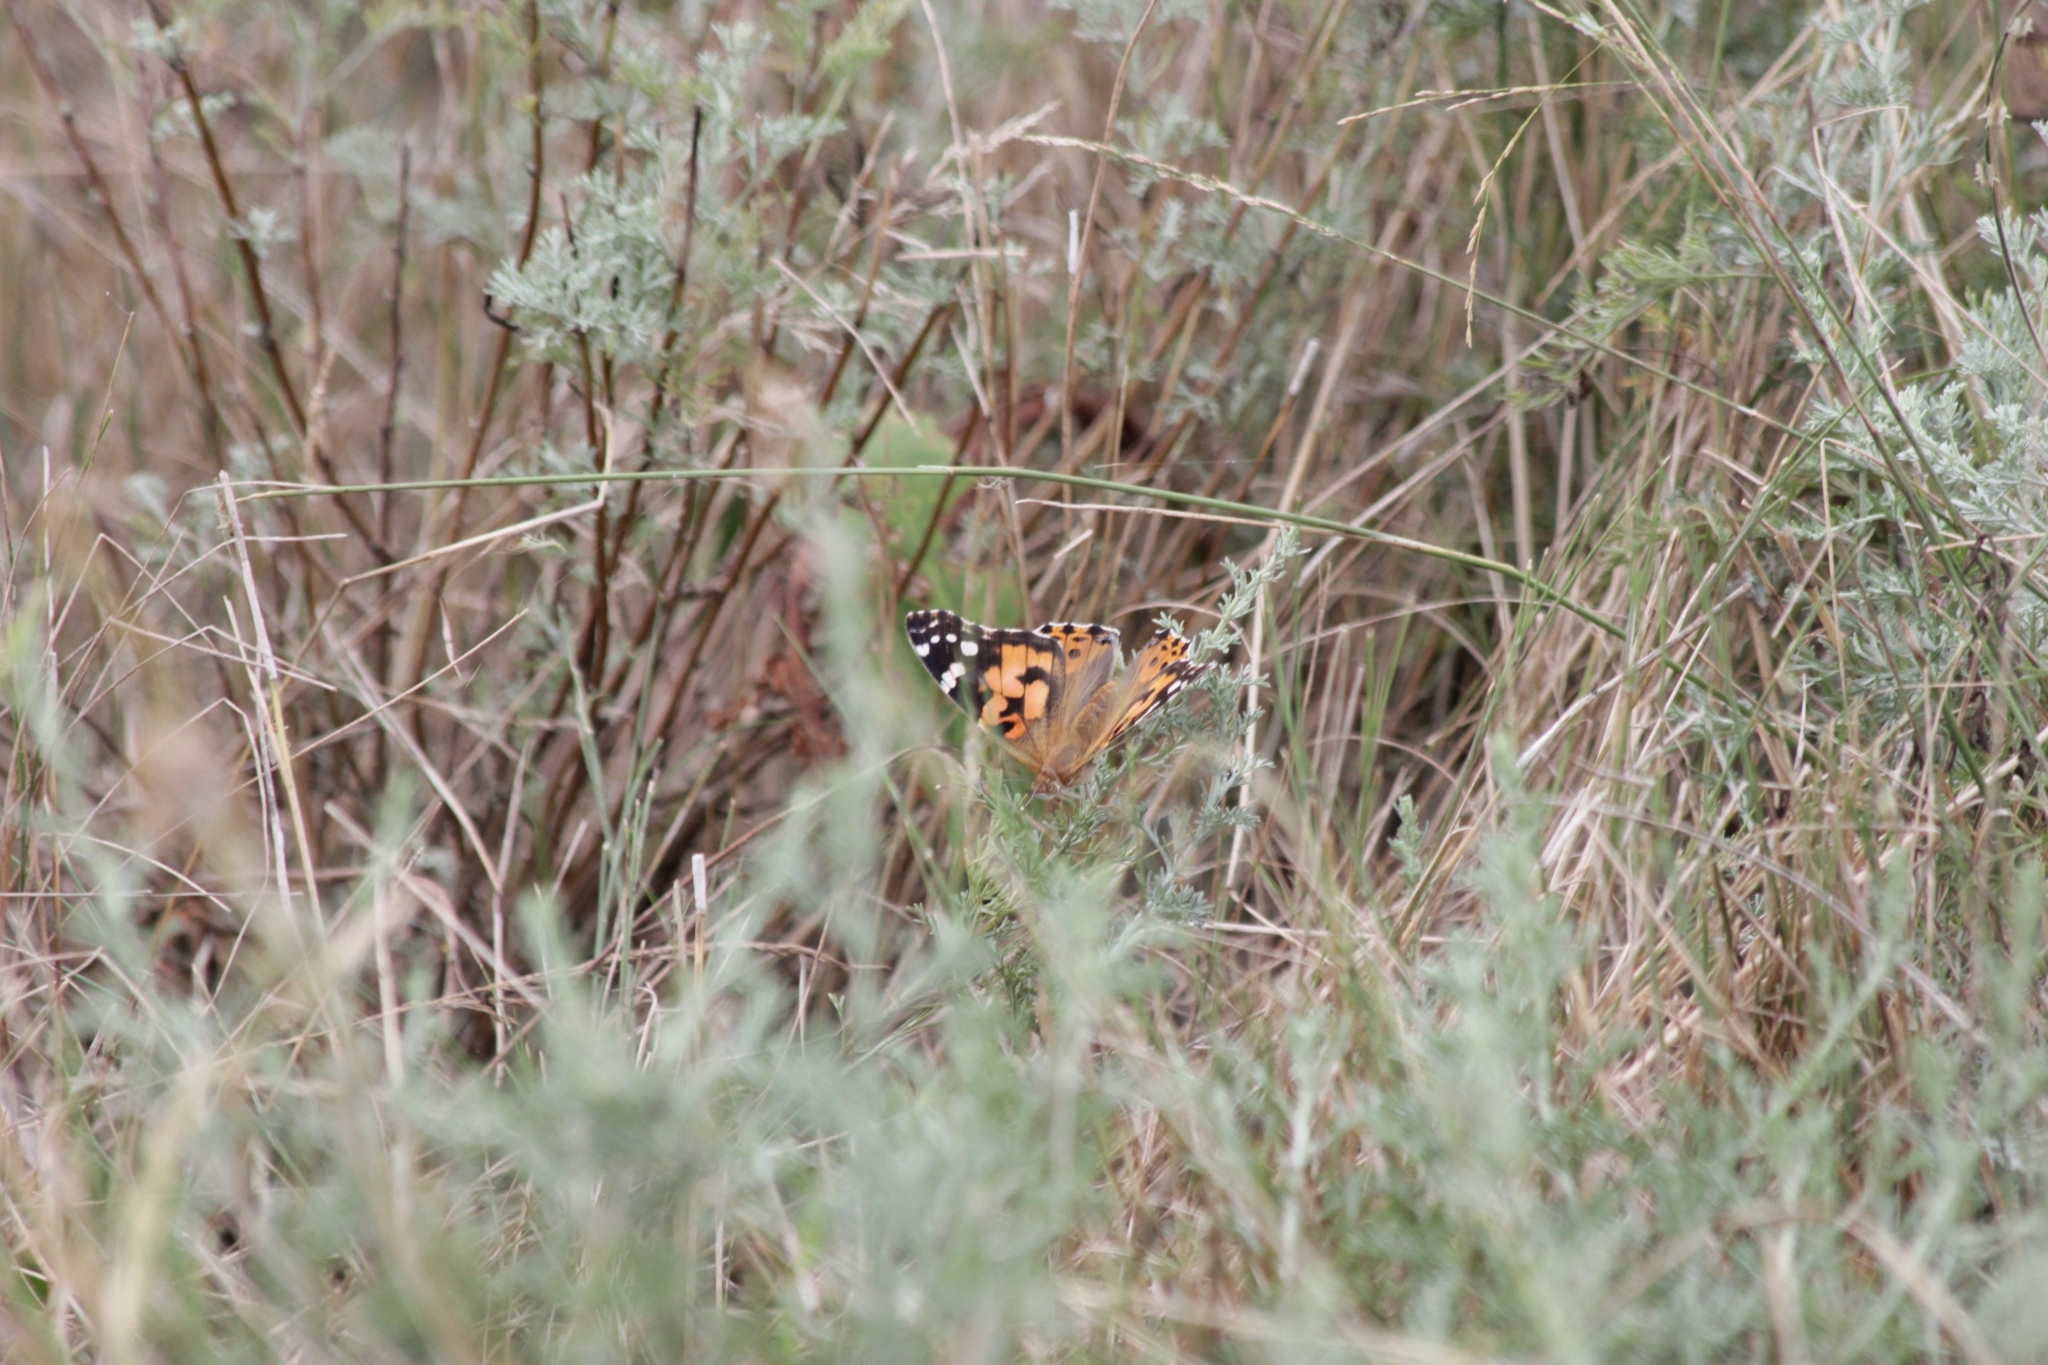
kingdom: Animalia
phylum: Arthropoda
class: Insecta
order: Lepidoptera
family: Nymphalidae
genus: Vanessa
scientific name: Vanessa cardui
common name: Painted lady
